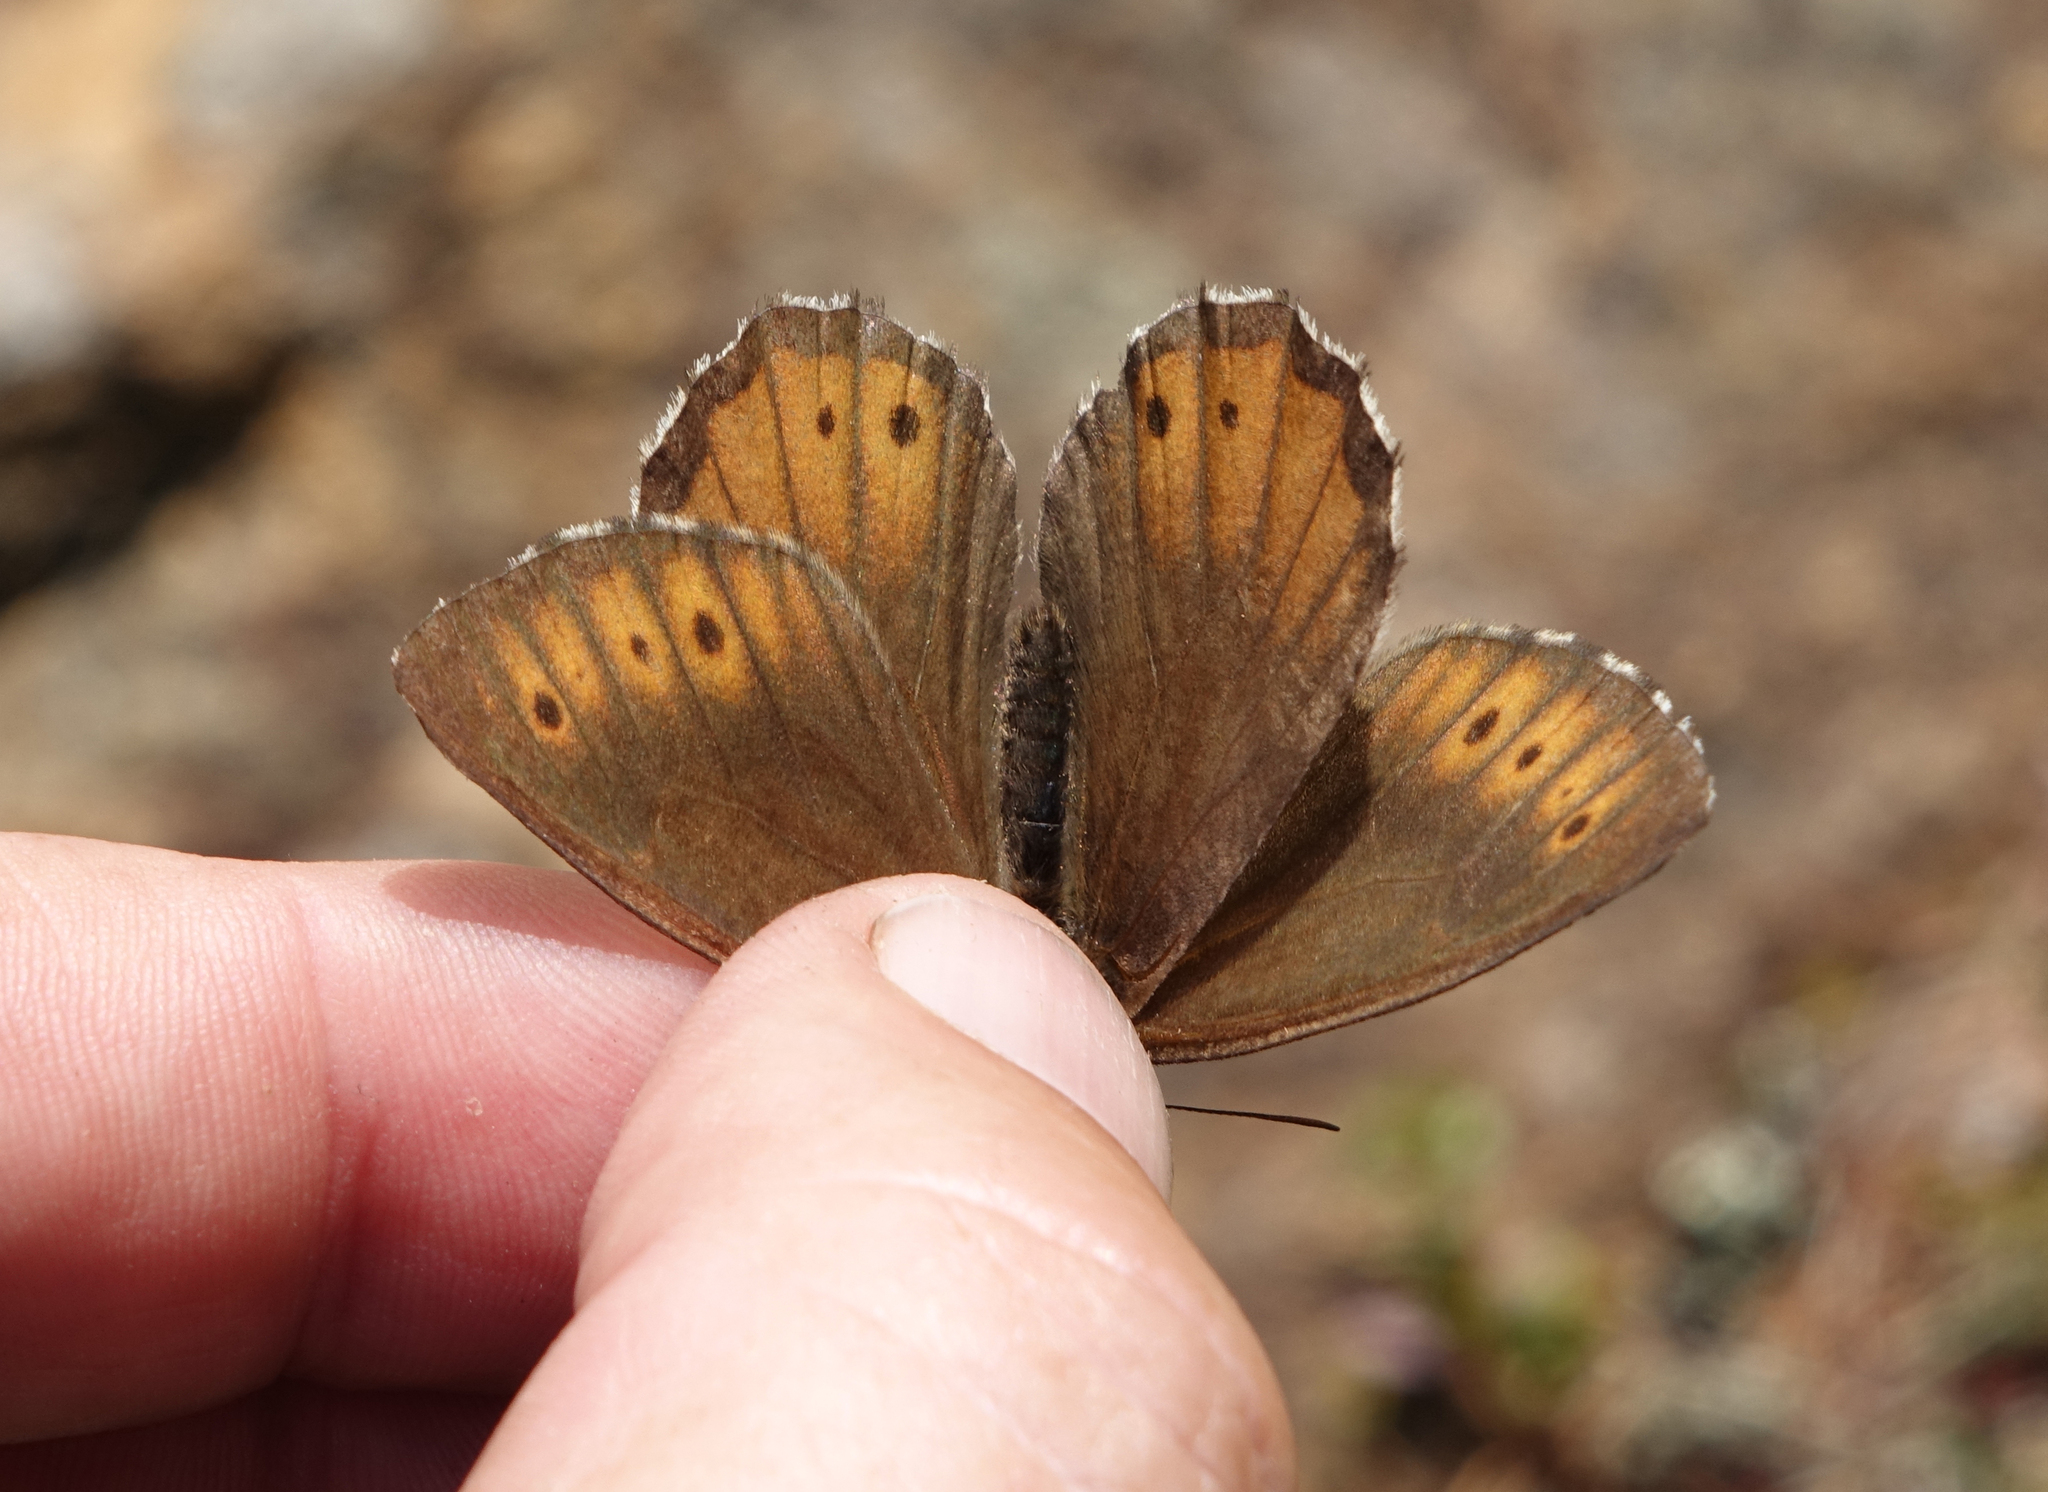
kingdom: Animalia
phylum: Arthropoda
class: Insecta
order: Lepidoptera
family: Nymphalidae
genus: Oeneis
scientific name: Oeneis jutta
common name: Baltic grayling
